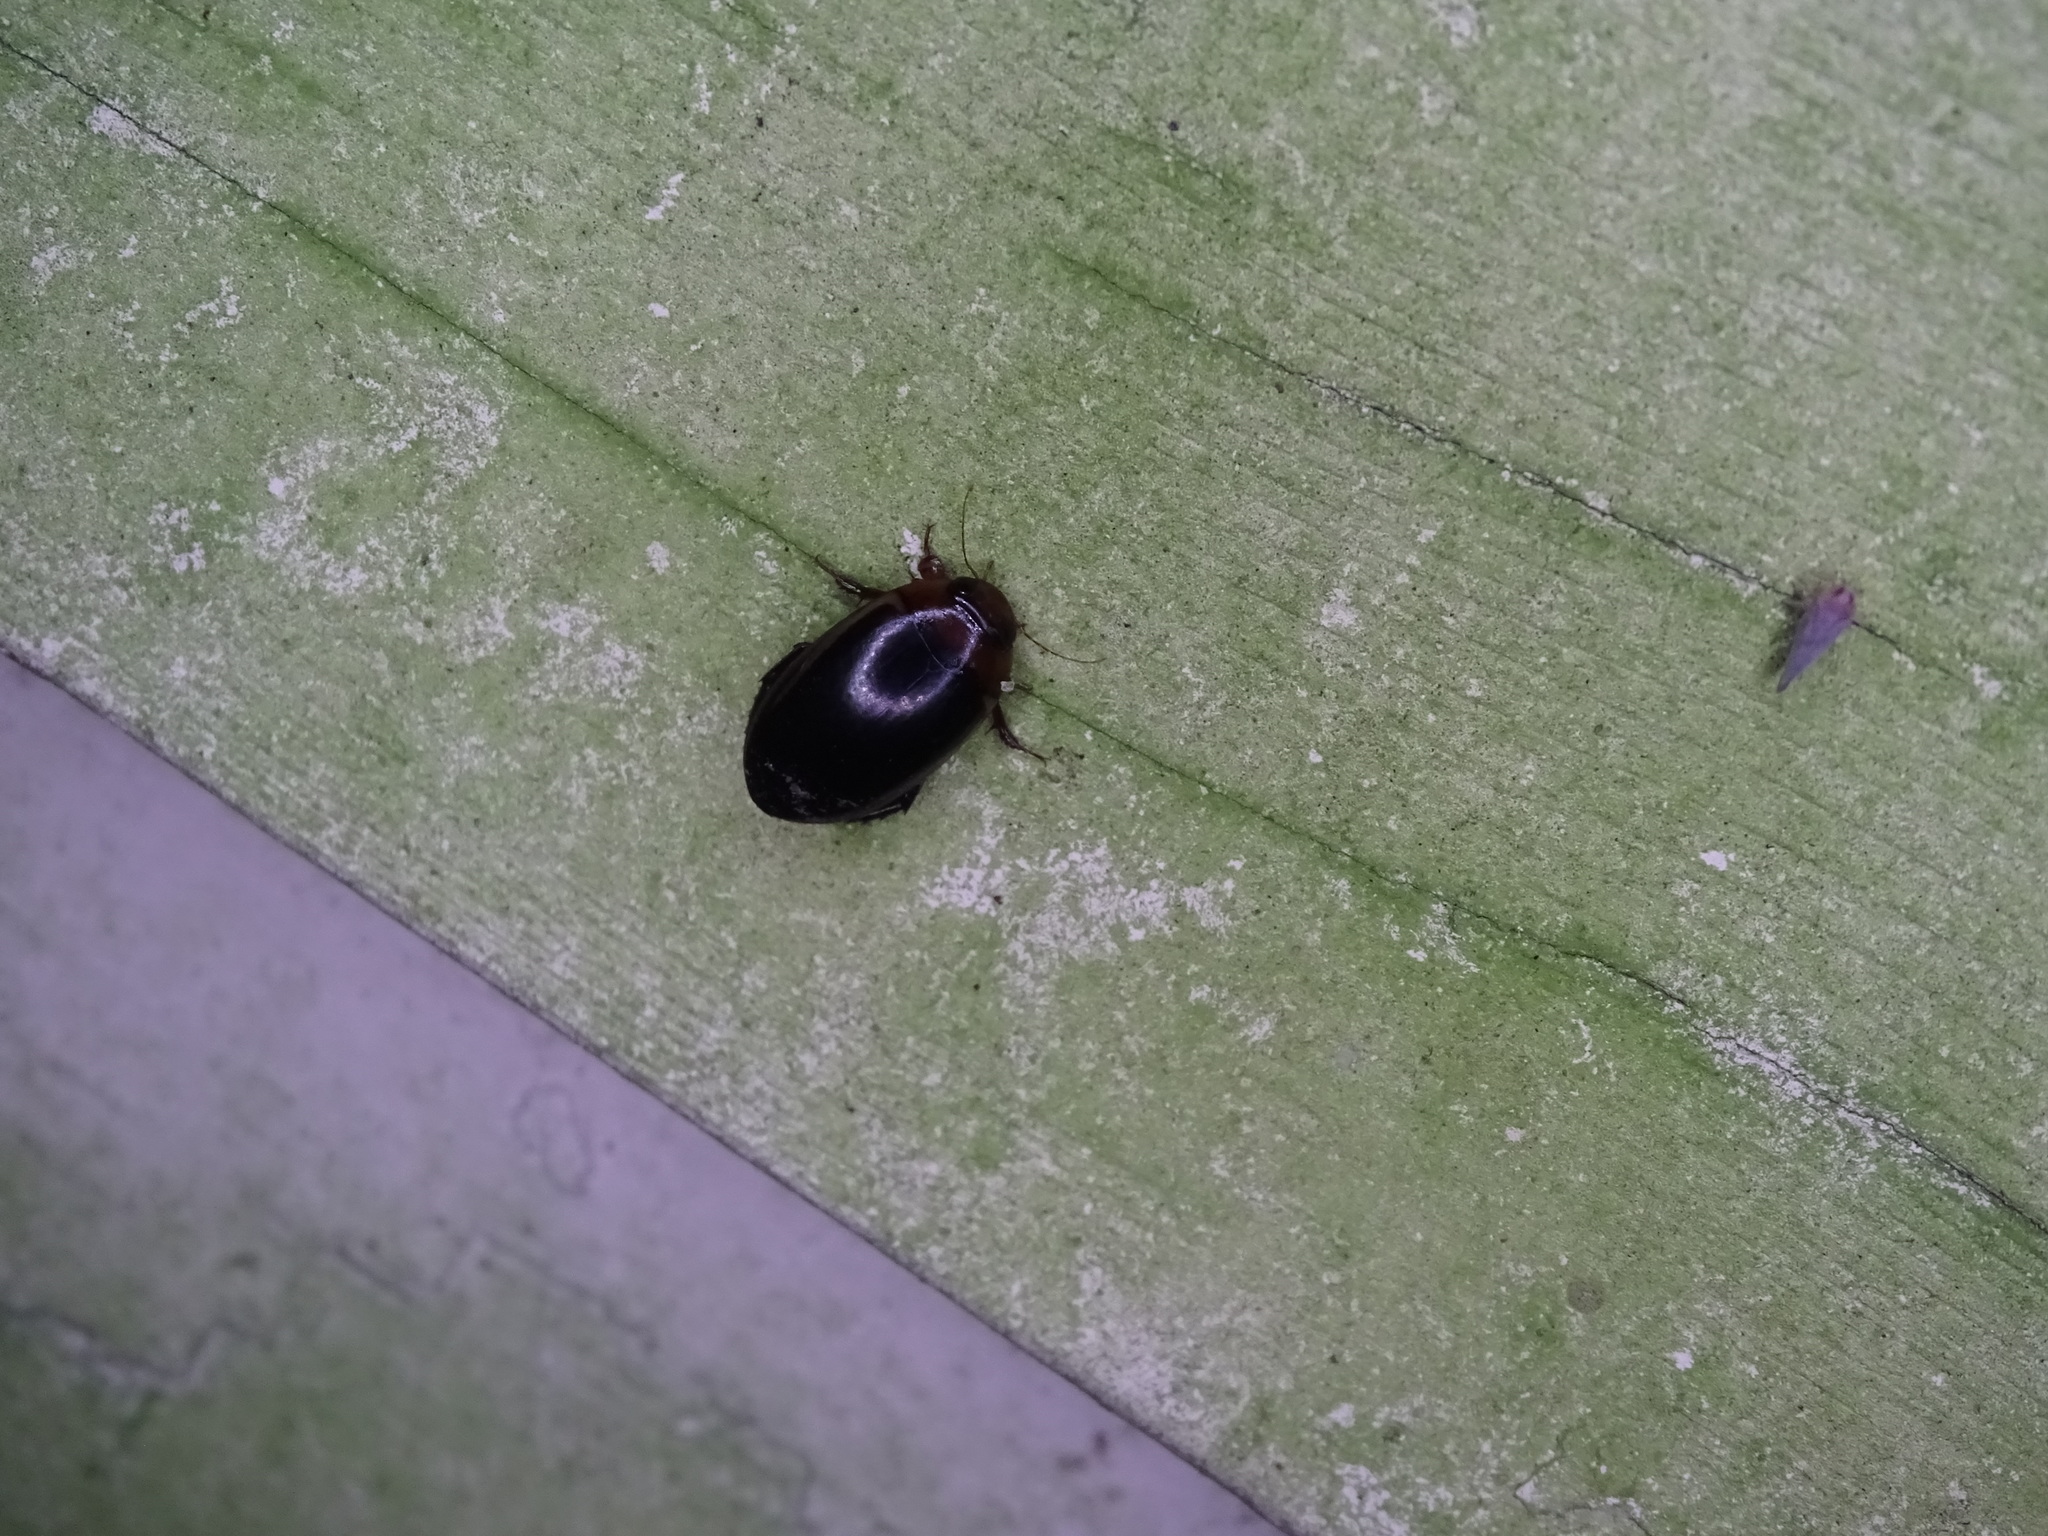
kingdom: Animalia
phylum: Arthropoda
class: Insecta
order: Coleoptera
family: Dytiscidae
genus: Hydaticus
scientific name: Hydaticus bimarginatus
